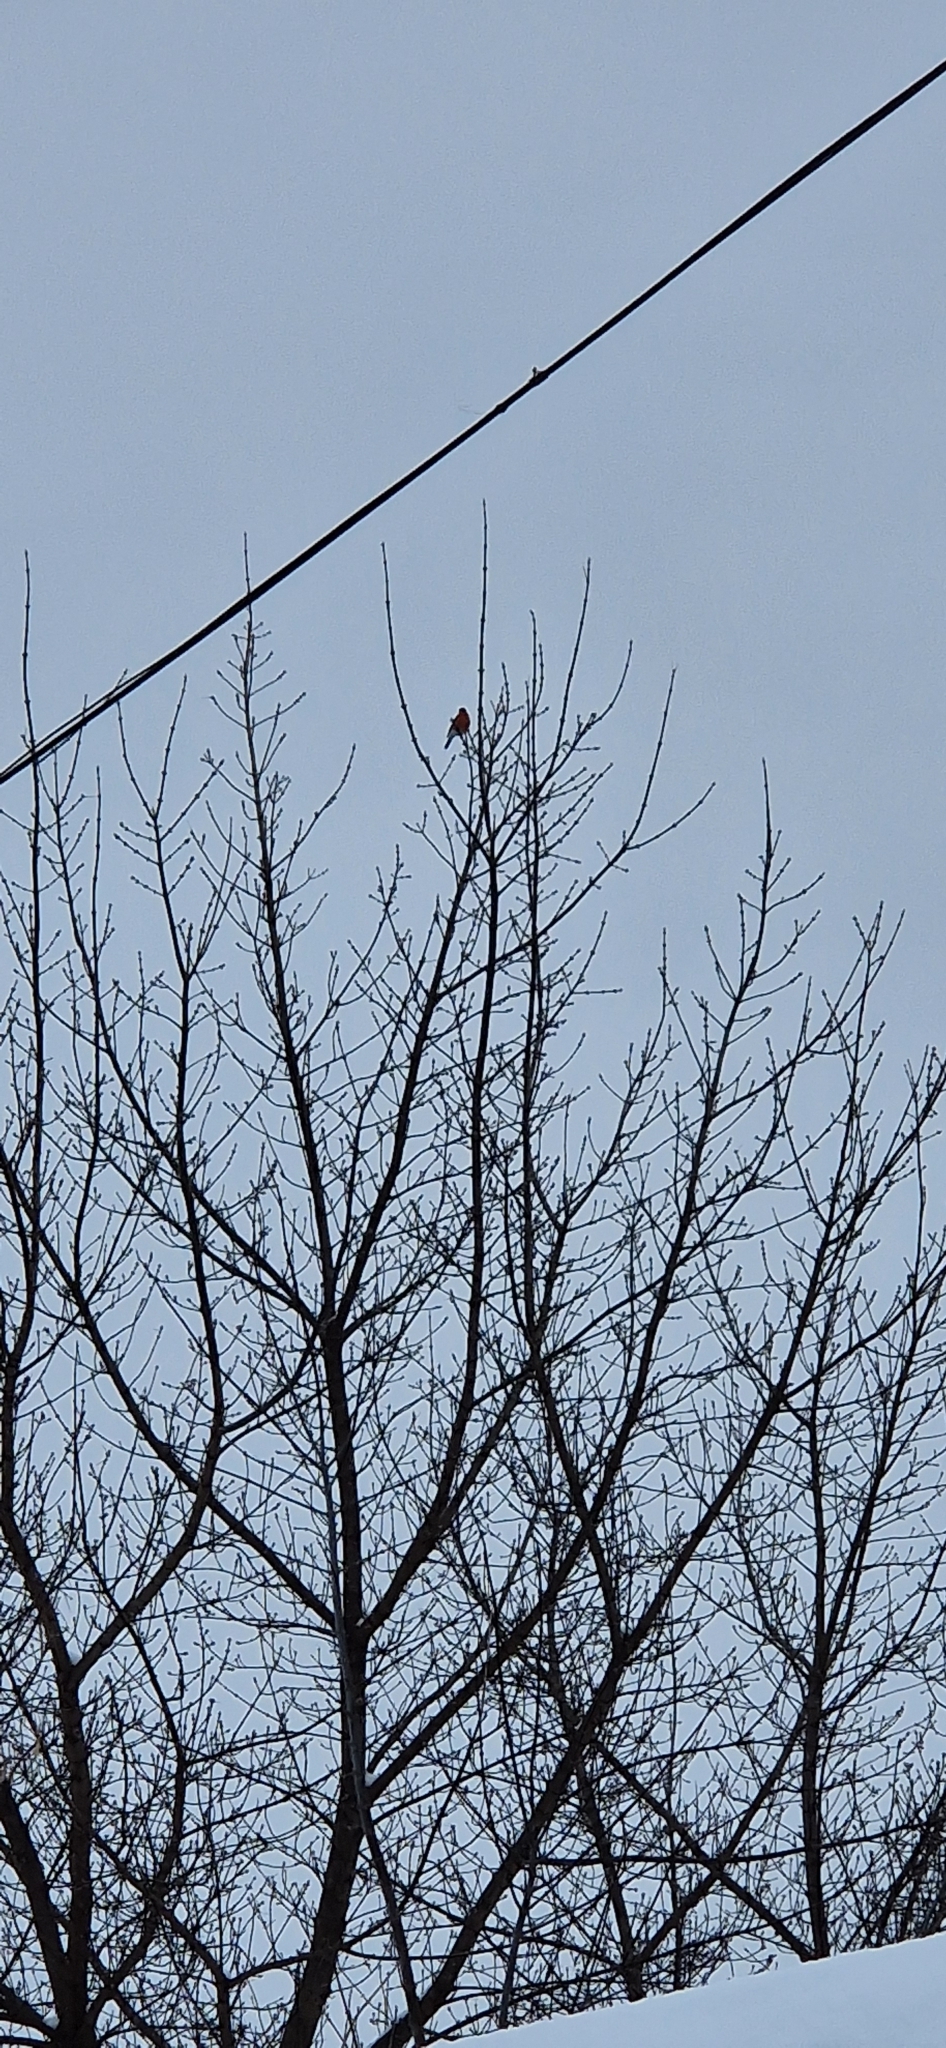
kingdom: Animalia
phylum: Chordata
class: Aves
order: Passeriformes
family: Fringillidae
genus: Pyrrhula
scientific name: Pyrrhula pyrrhula
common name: Eurasian bullfinch
